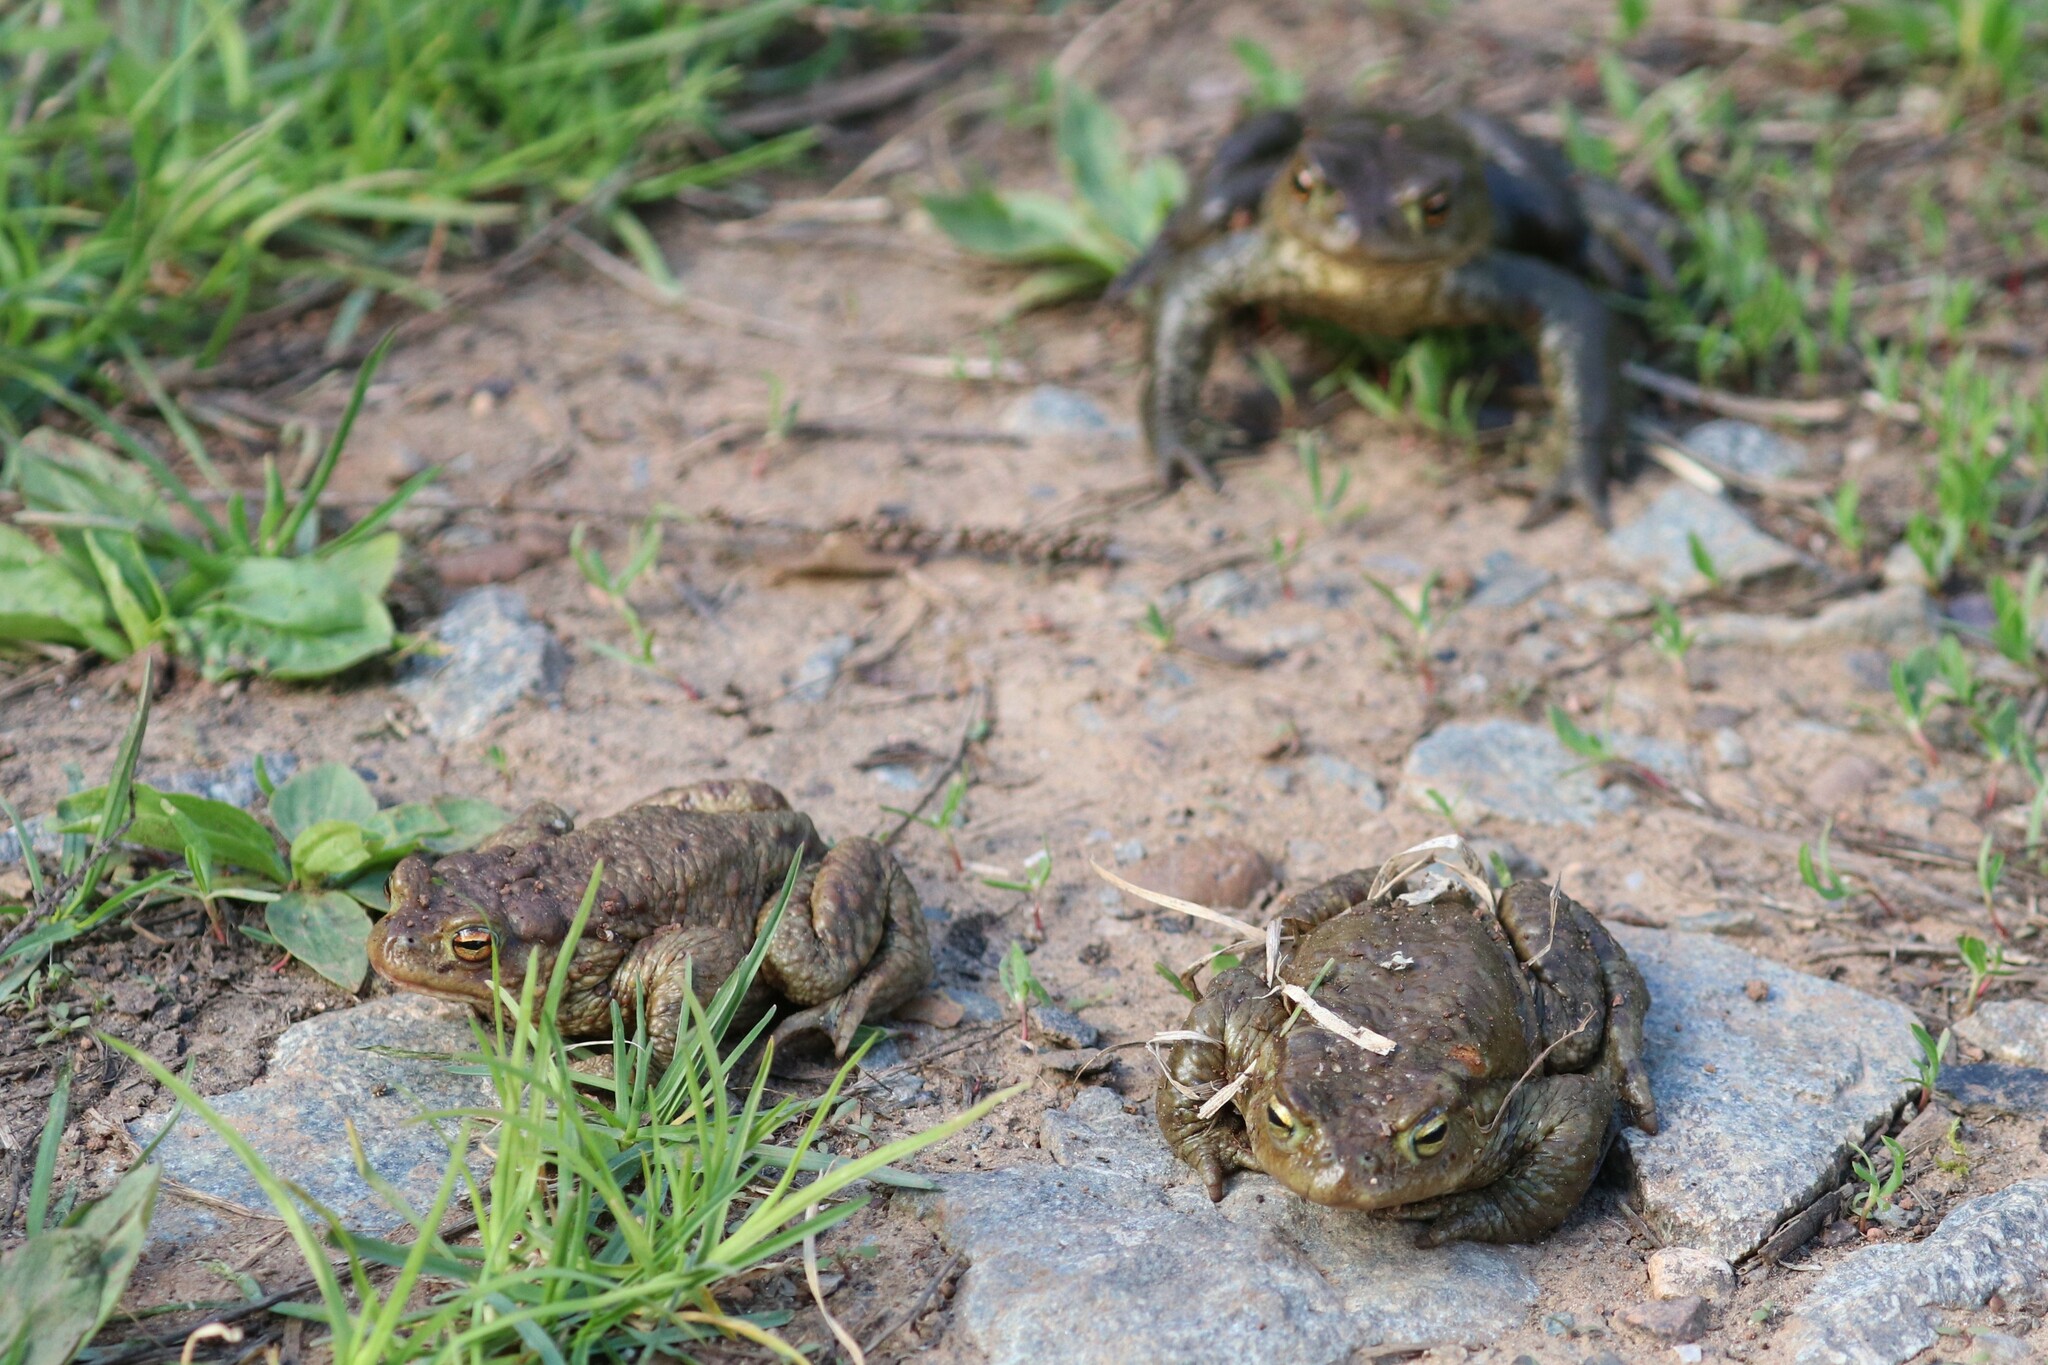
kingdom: Animalia
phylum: Chordata
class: Amphibia
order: Anura
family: Bufonidae
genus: Bufo
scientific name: Bufo bufo
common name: Common toad
